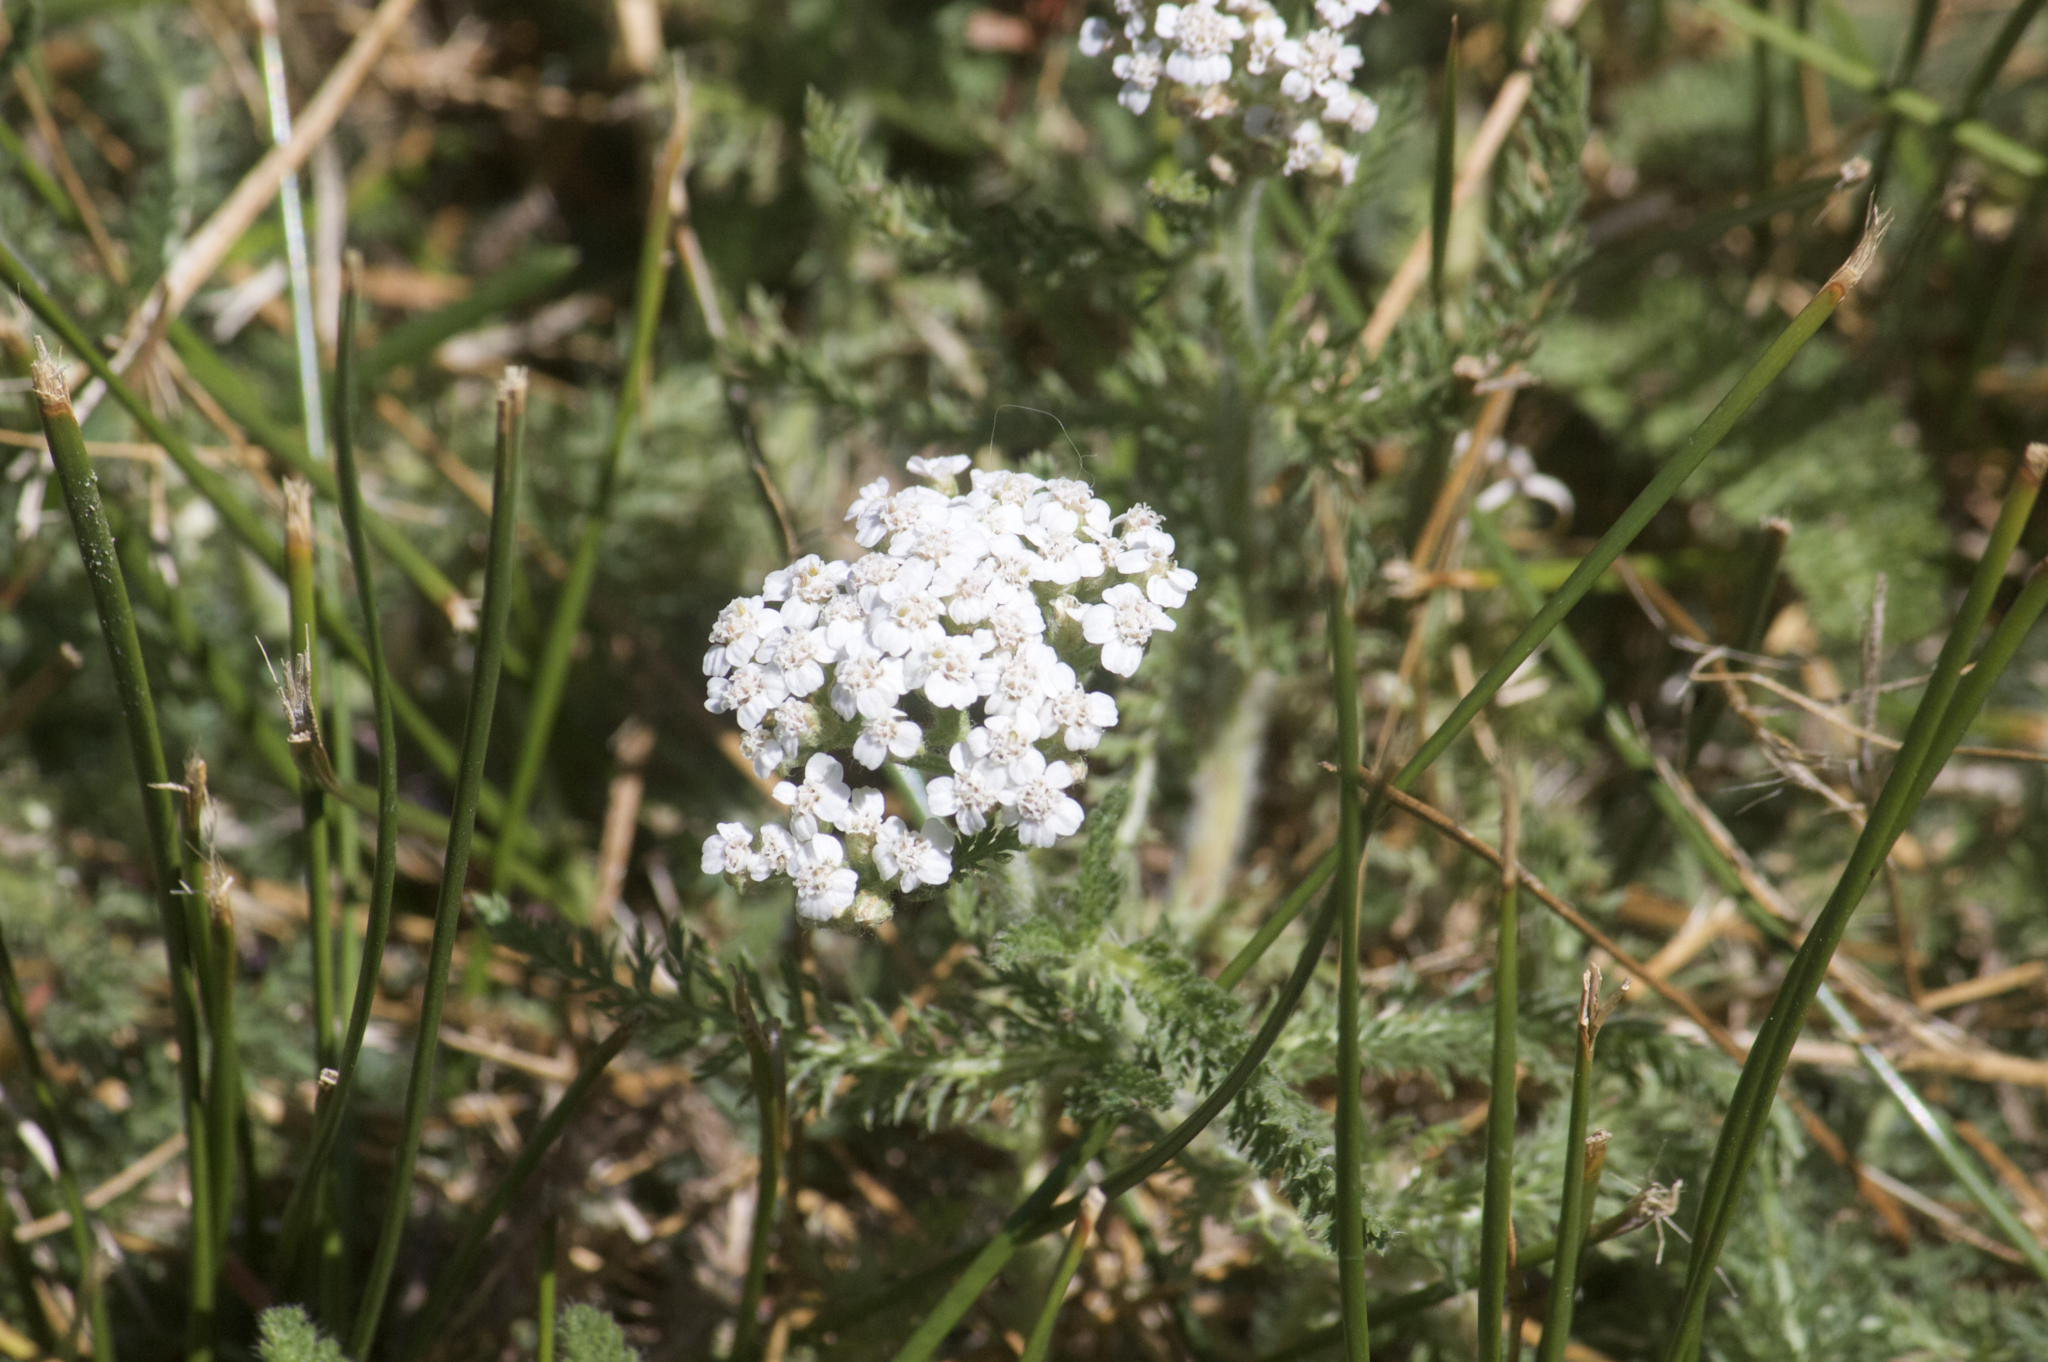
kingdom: Plantae
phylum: Tracheophyta
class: Magnoliopsida
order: Asterales
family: Asteraceae
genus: Achillea
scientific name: Achillea millefolium
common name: Yarrow
